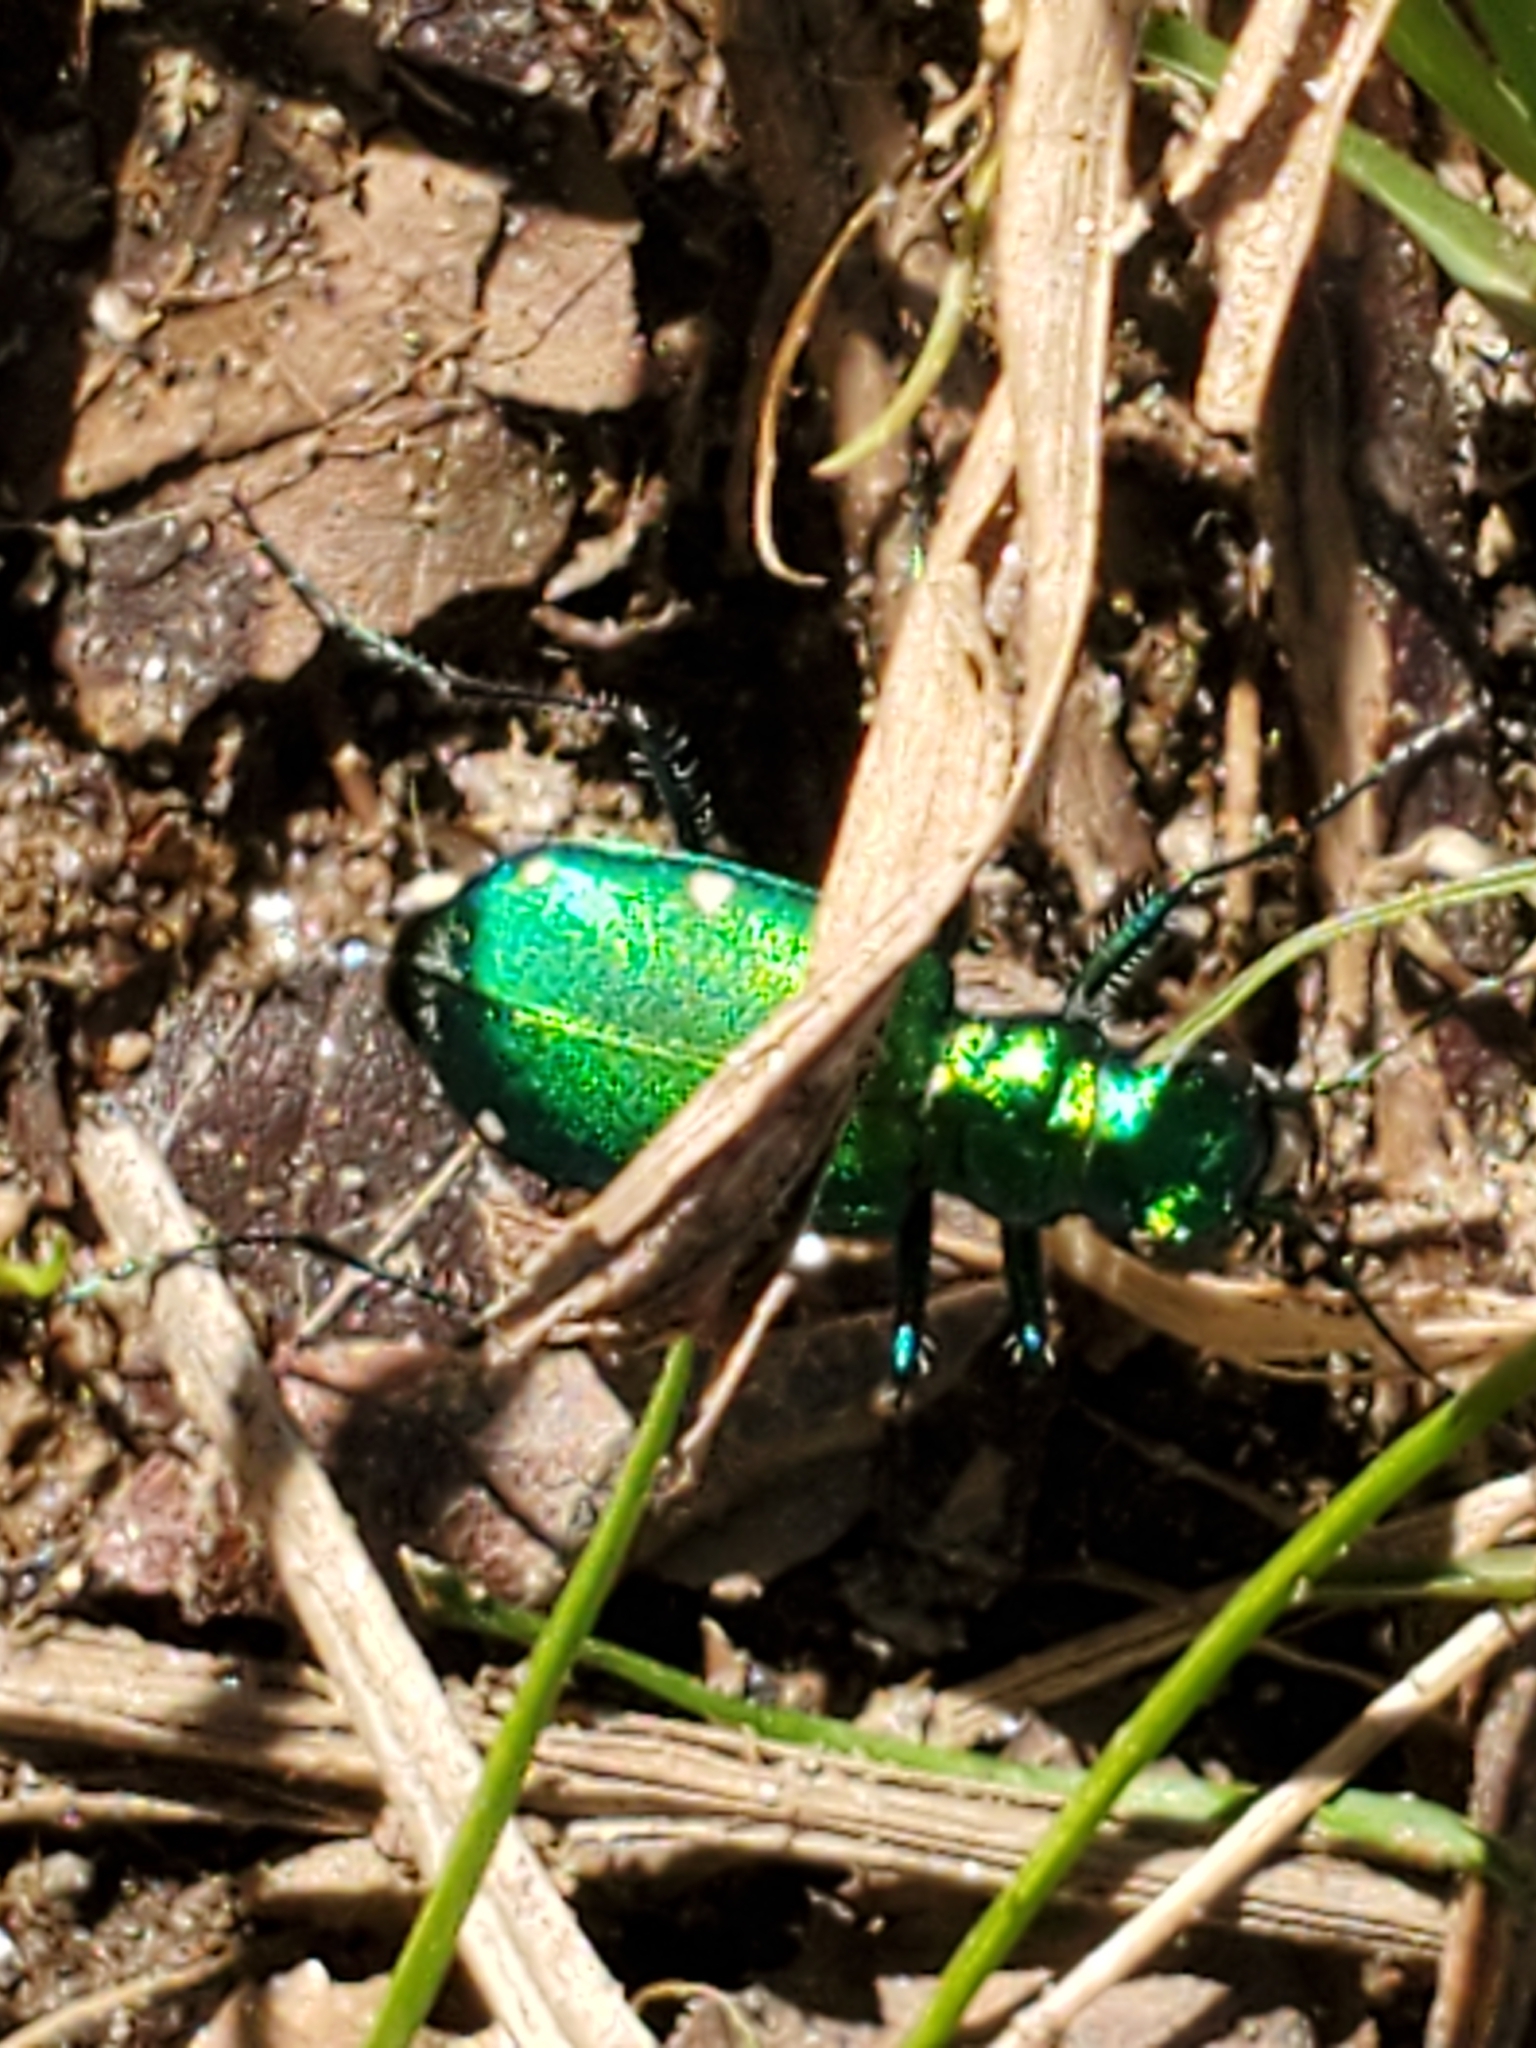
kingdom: Animalia
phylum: Arthropoda
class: Insecta
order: Coleoptera
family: Carabidae
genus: Cicindela
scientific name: Cicindela sexguttata
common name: Six-spotted tiger beetle
